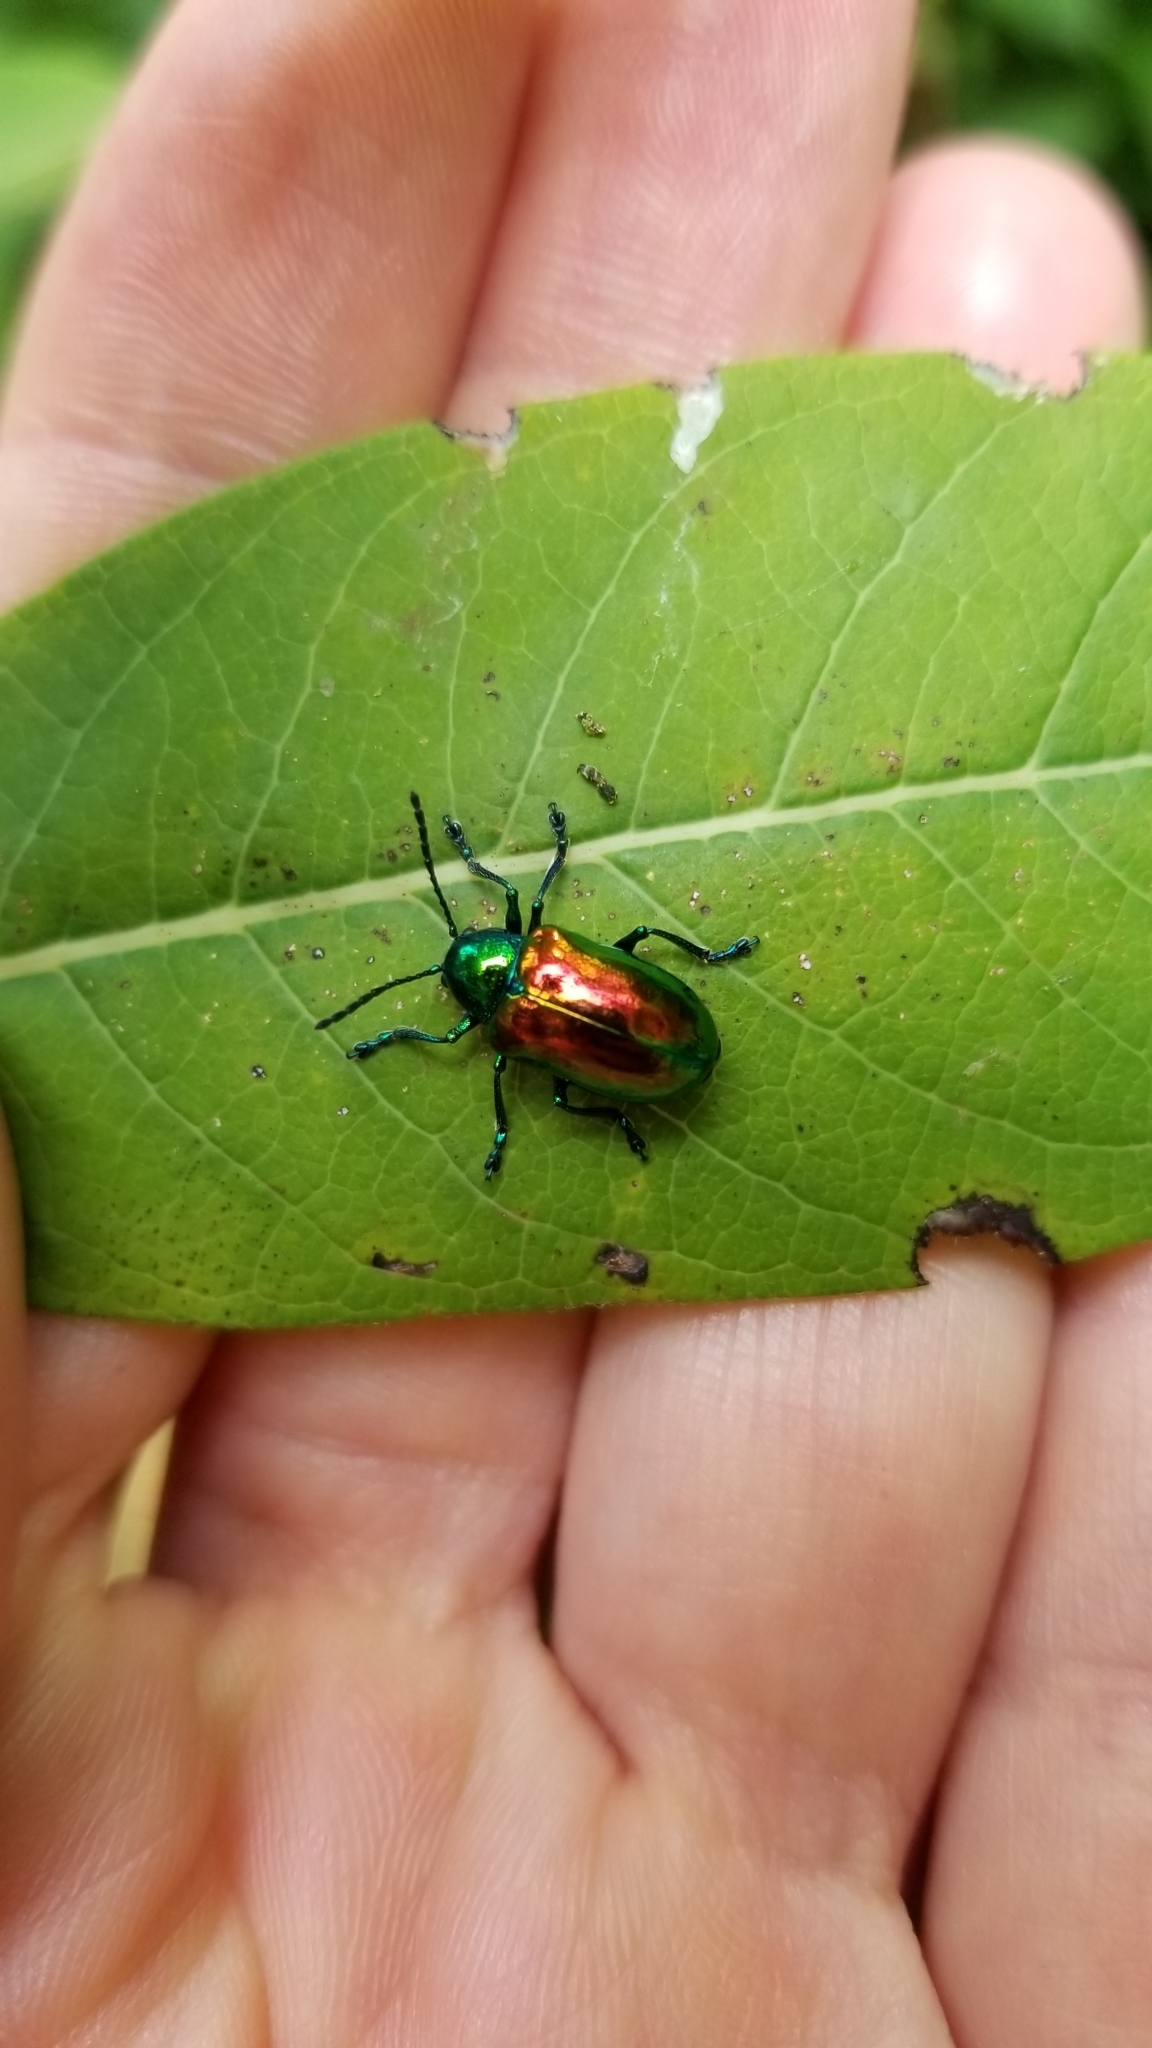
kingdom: Animalia
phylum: Arthropoda
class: Insecta
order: Coleoptera
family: Chrysomelidae
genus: Chrysochus
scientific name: Chrysochus auratus
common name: Dogbane leaf beetle
